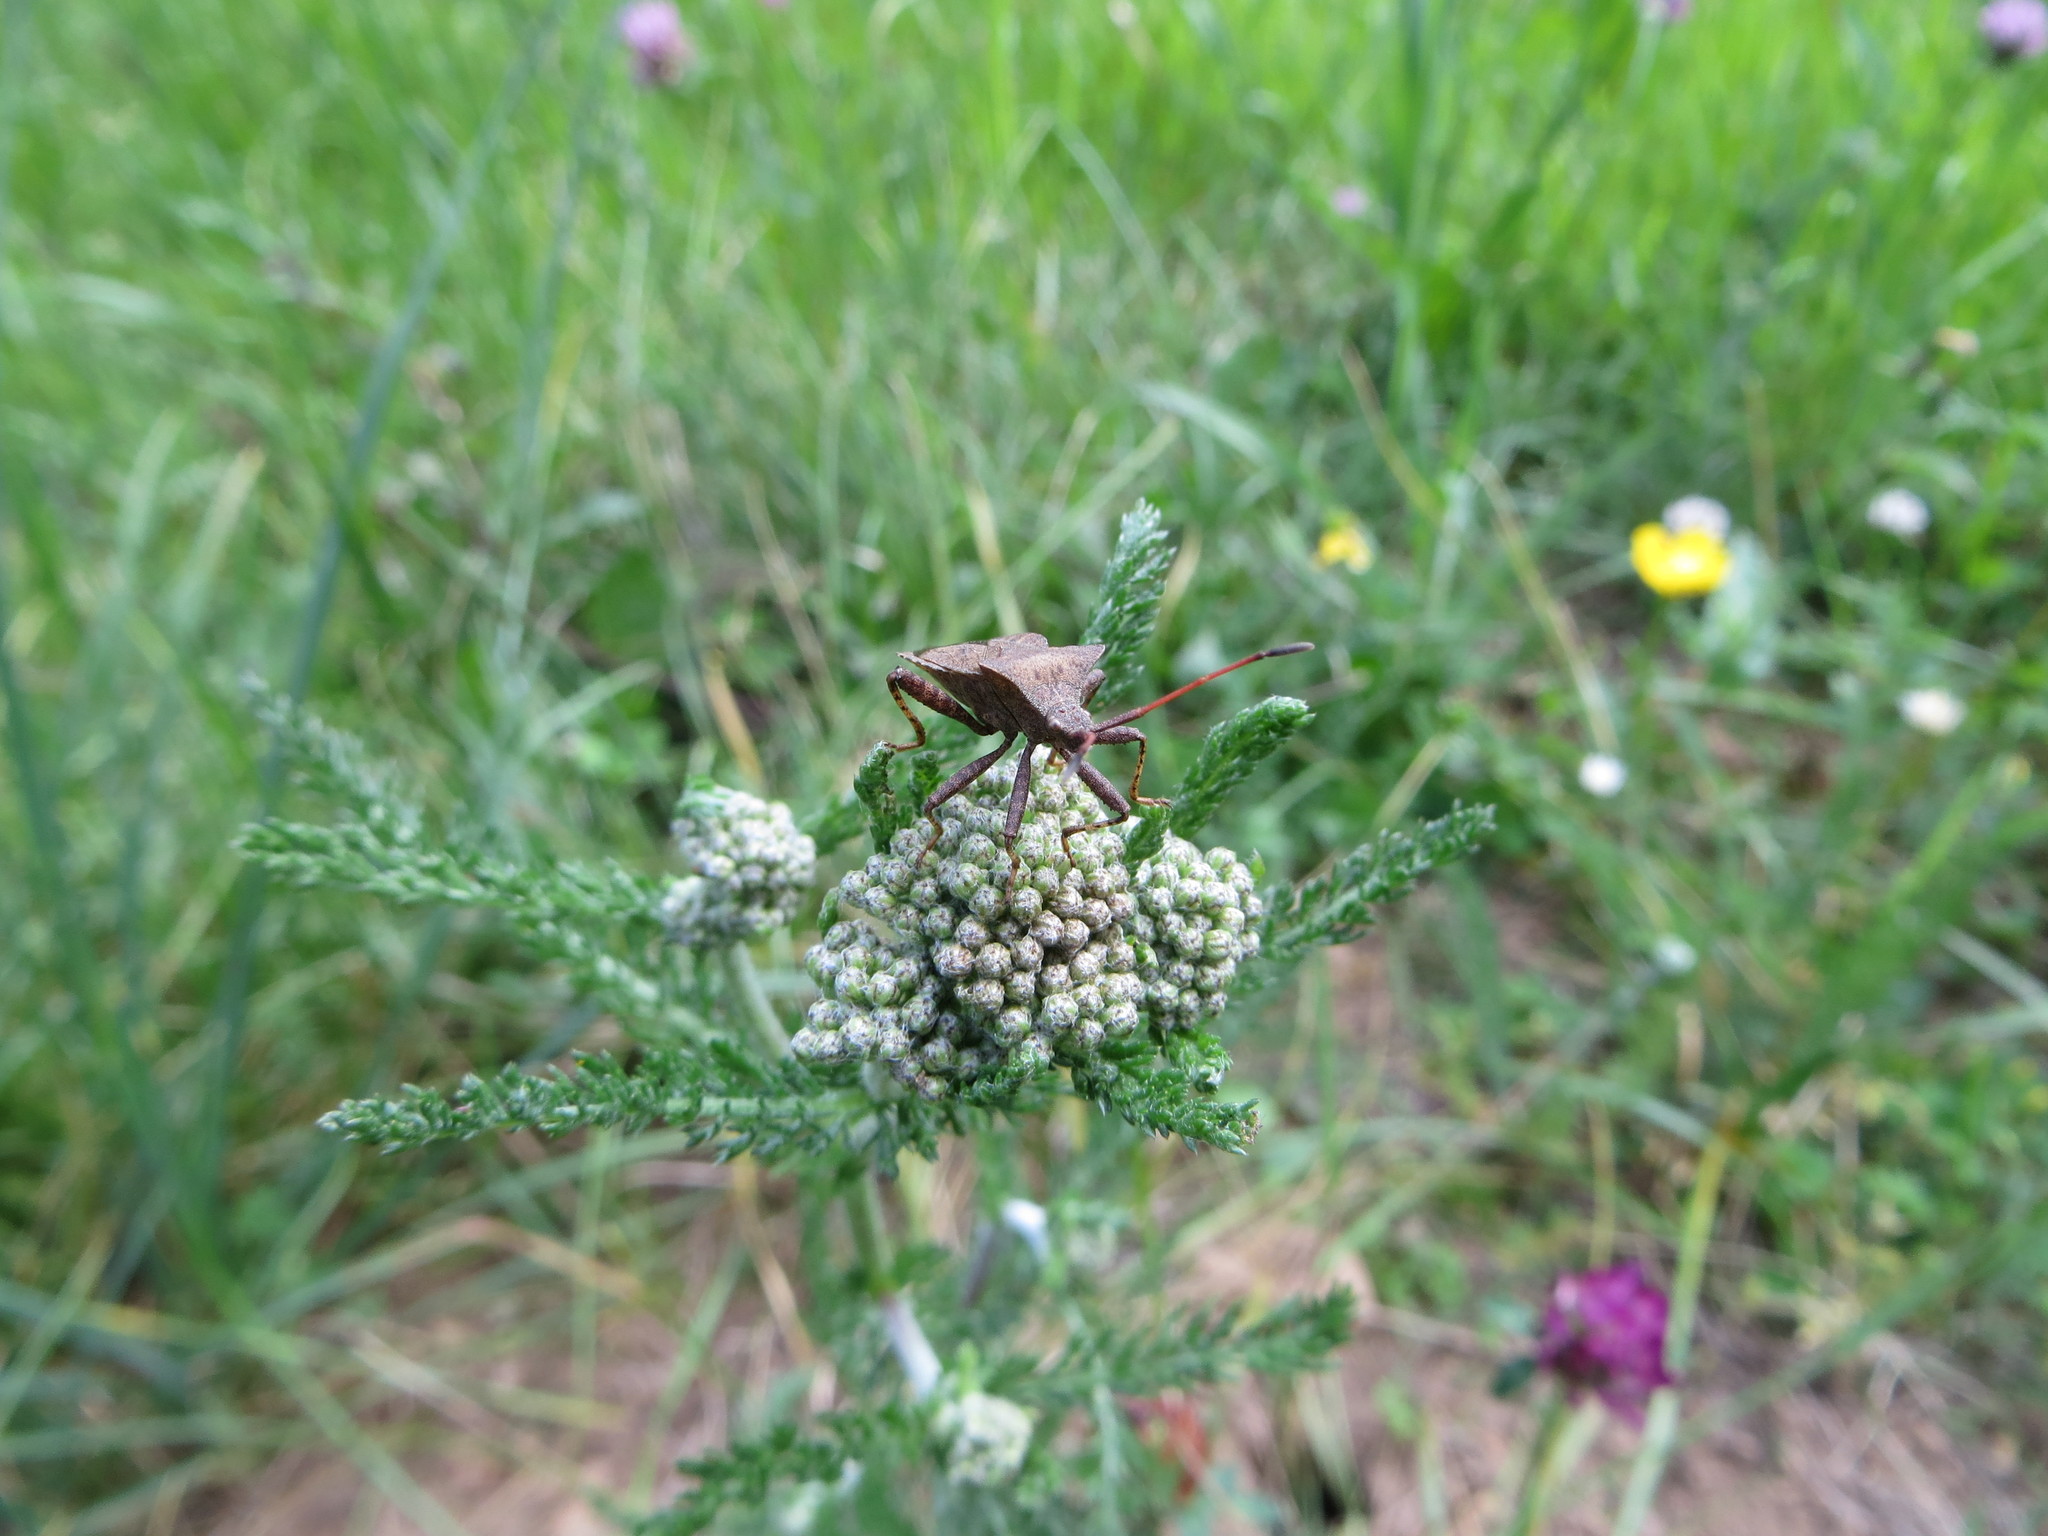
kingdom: Animalia
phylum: Arthropoda
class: Insecta
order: Hemiptera
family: Coreidae
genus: Coreus
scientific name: Coreus marginatus
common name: Dock bug
